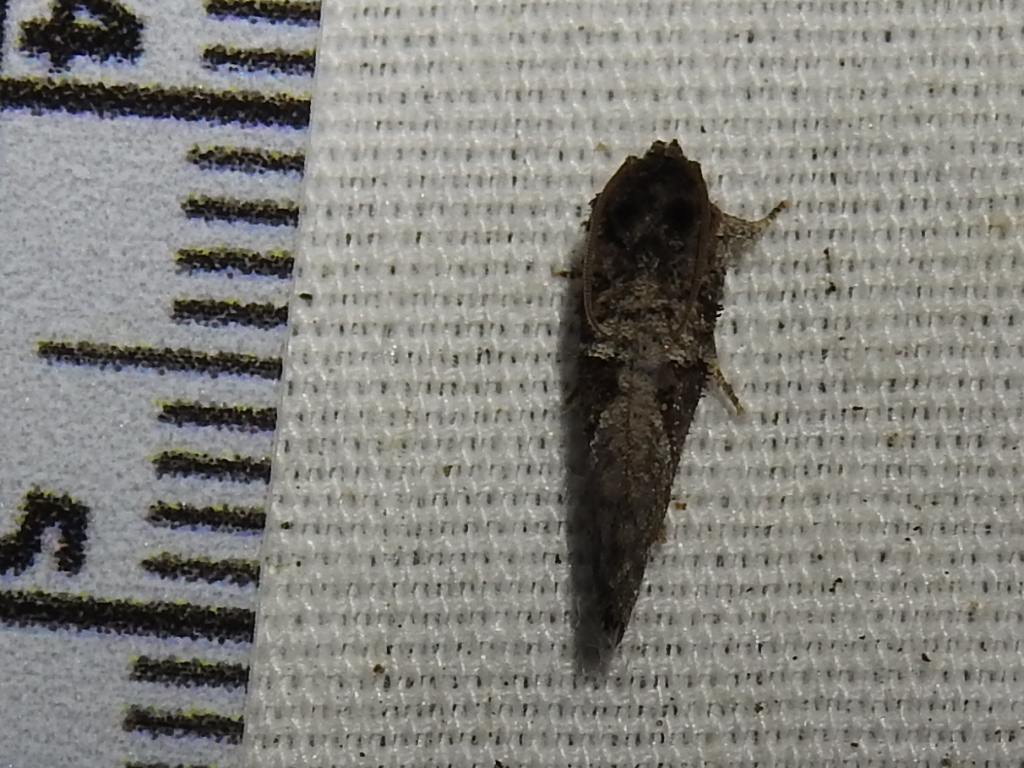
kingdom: Animalia
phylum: Arthropoda
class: Insecta
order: Lepidoptera
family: Tineidae
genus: Acrolophus
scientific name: Acrolophus piger
